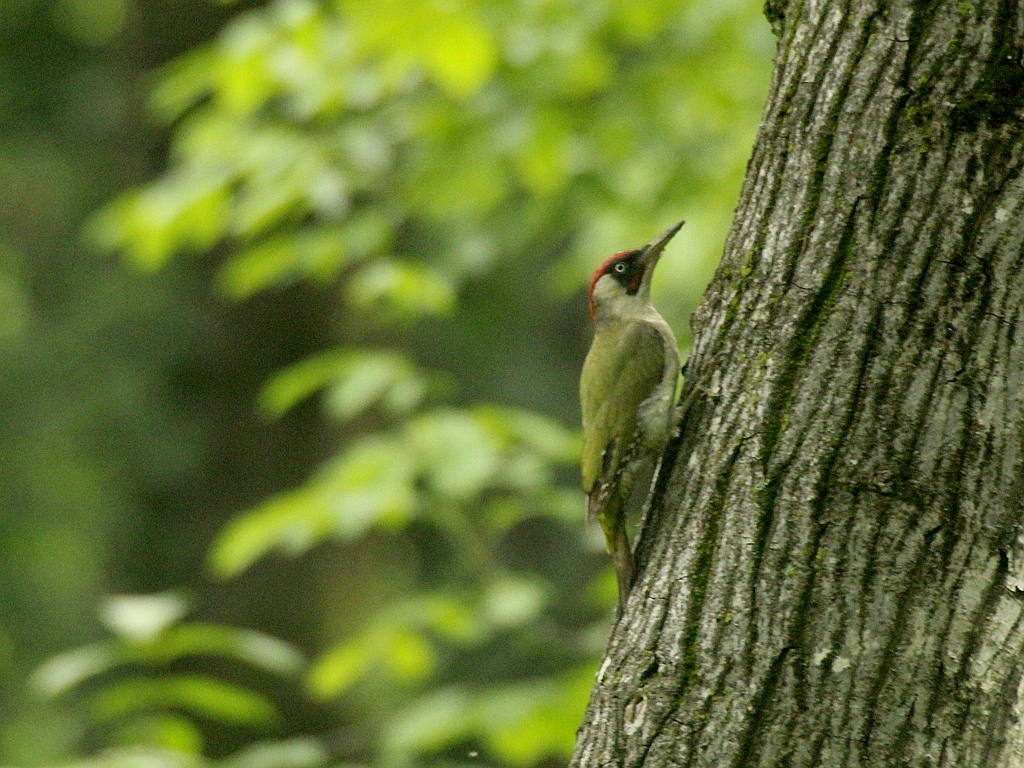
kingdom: Animalia
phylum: Chordata
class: Aves
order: Piciformes
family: Picidae
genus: Picus
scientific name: Picus viridis
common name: European green woodpecker
